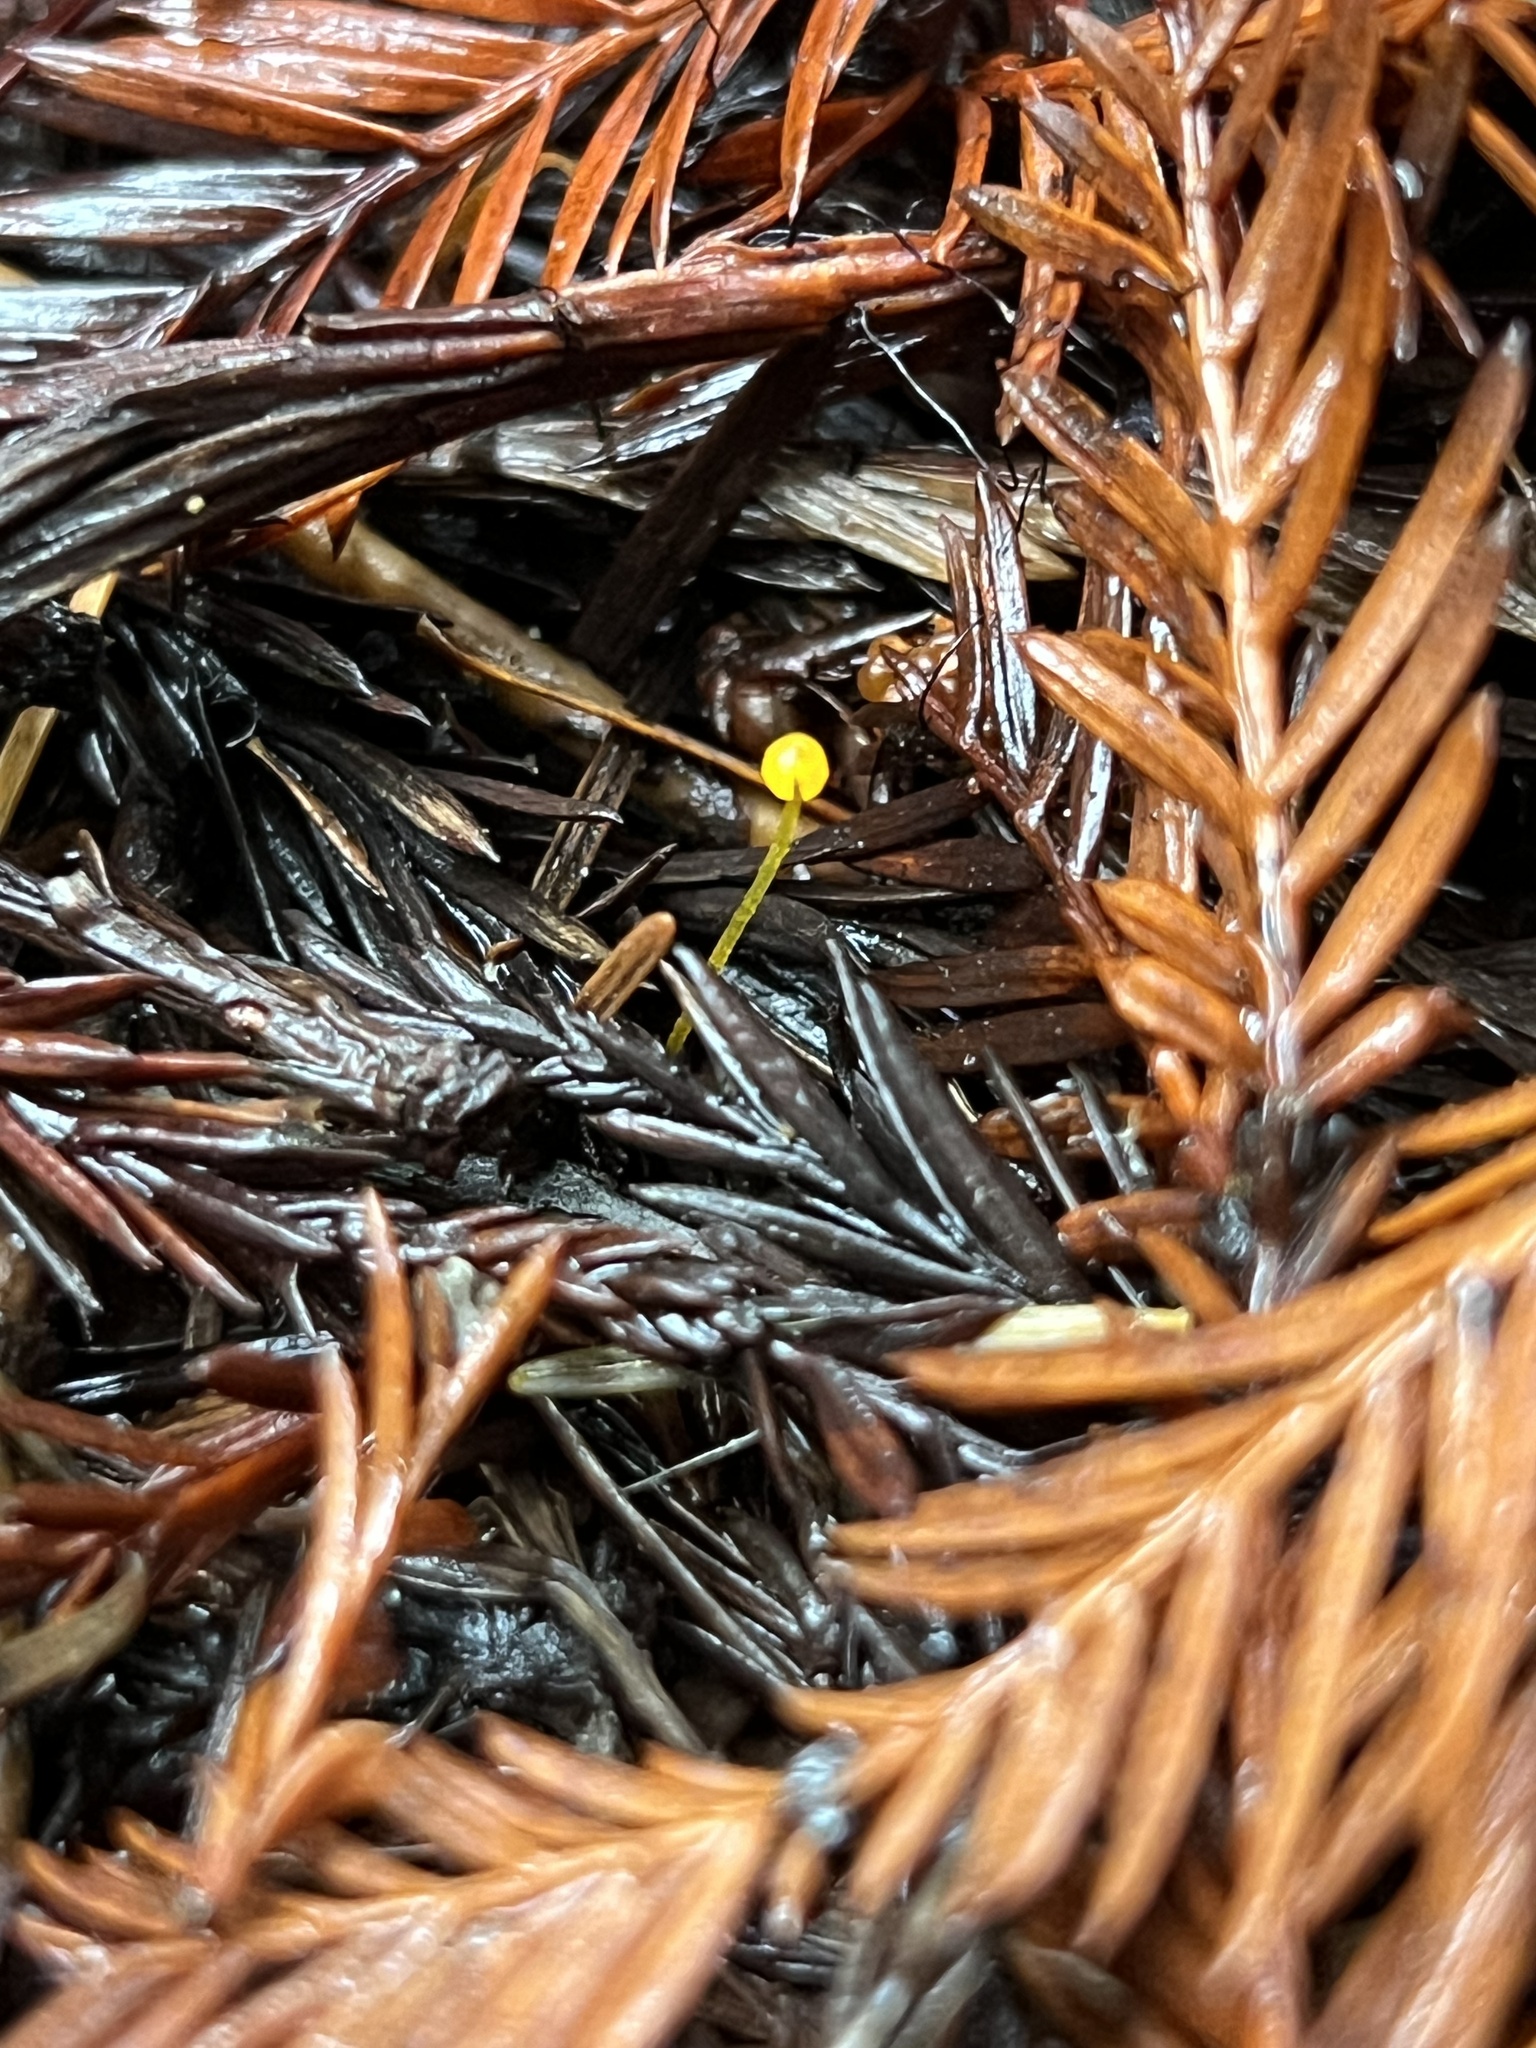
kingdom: Fungi
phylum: Basidiomycota
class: Agaricomycetes
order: Agaricales
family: Mycenaceae
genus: Mycena
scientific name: Mycena oregonensis
